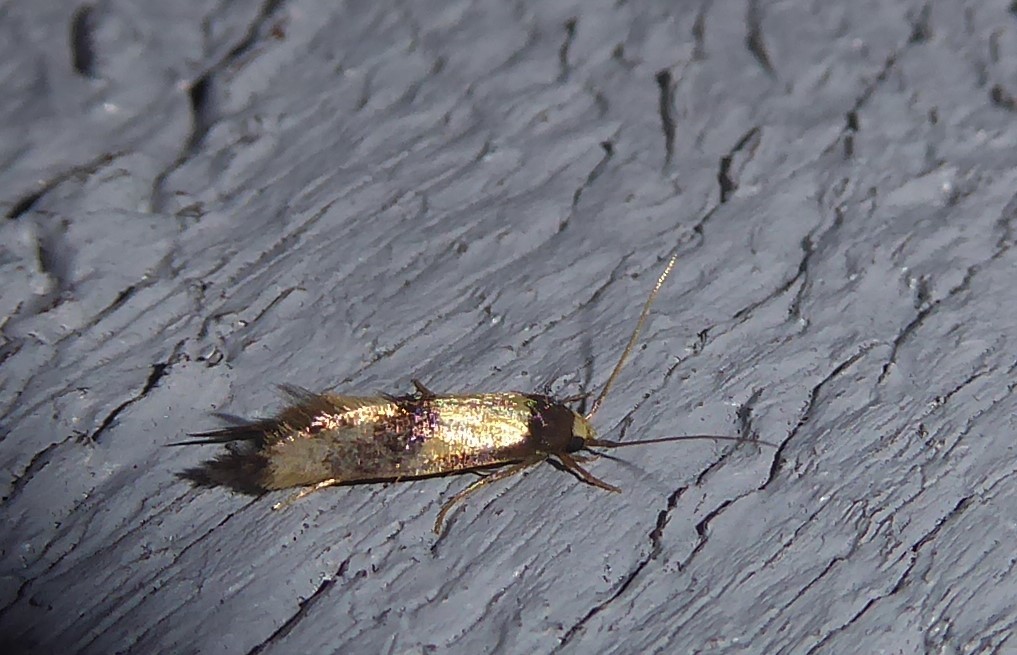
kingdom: Animalia
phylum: Arthropoda
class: Insecta
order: Lepidoptera
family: Tineidae
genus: Opogona
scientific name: Opogona comptella
